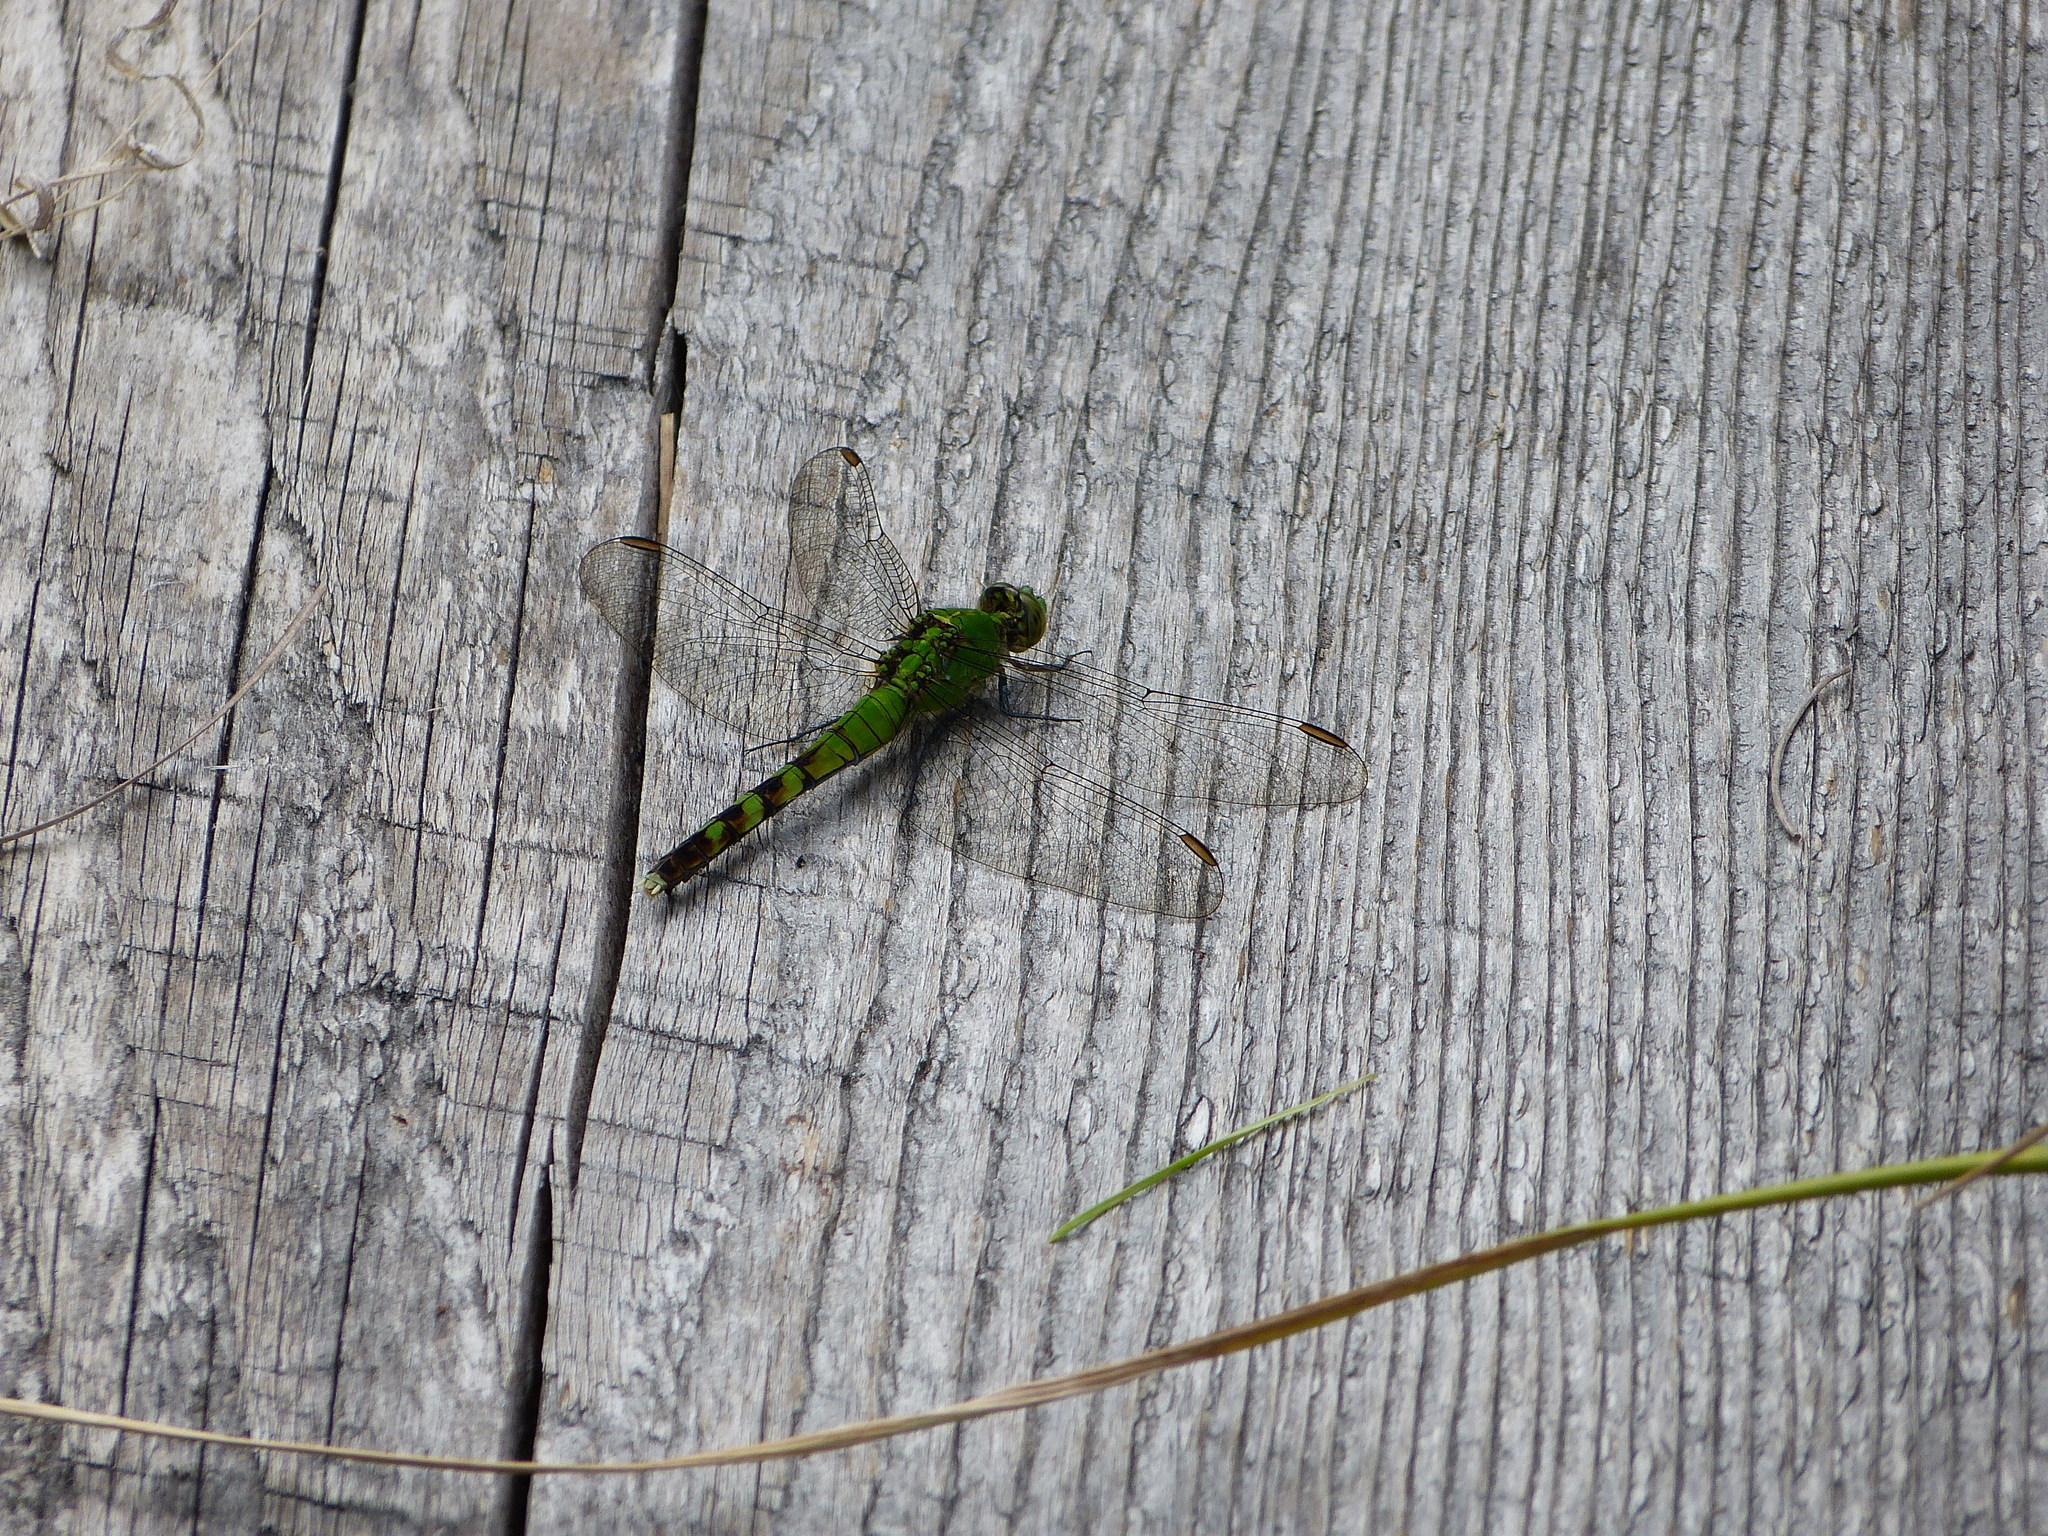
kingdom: Animalia
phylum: Arthropoda
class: Insecta
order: Odonata
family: Libellulidae
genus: Erythemis
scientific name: Erythemis simplicicollis
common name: Eastern pondhawk
